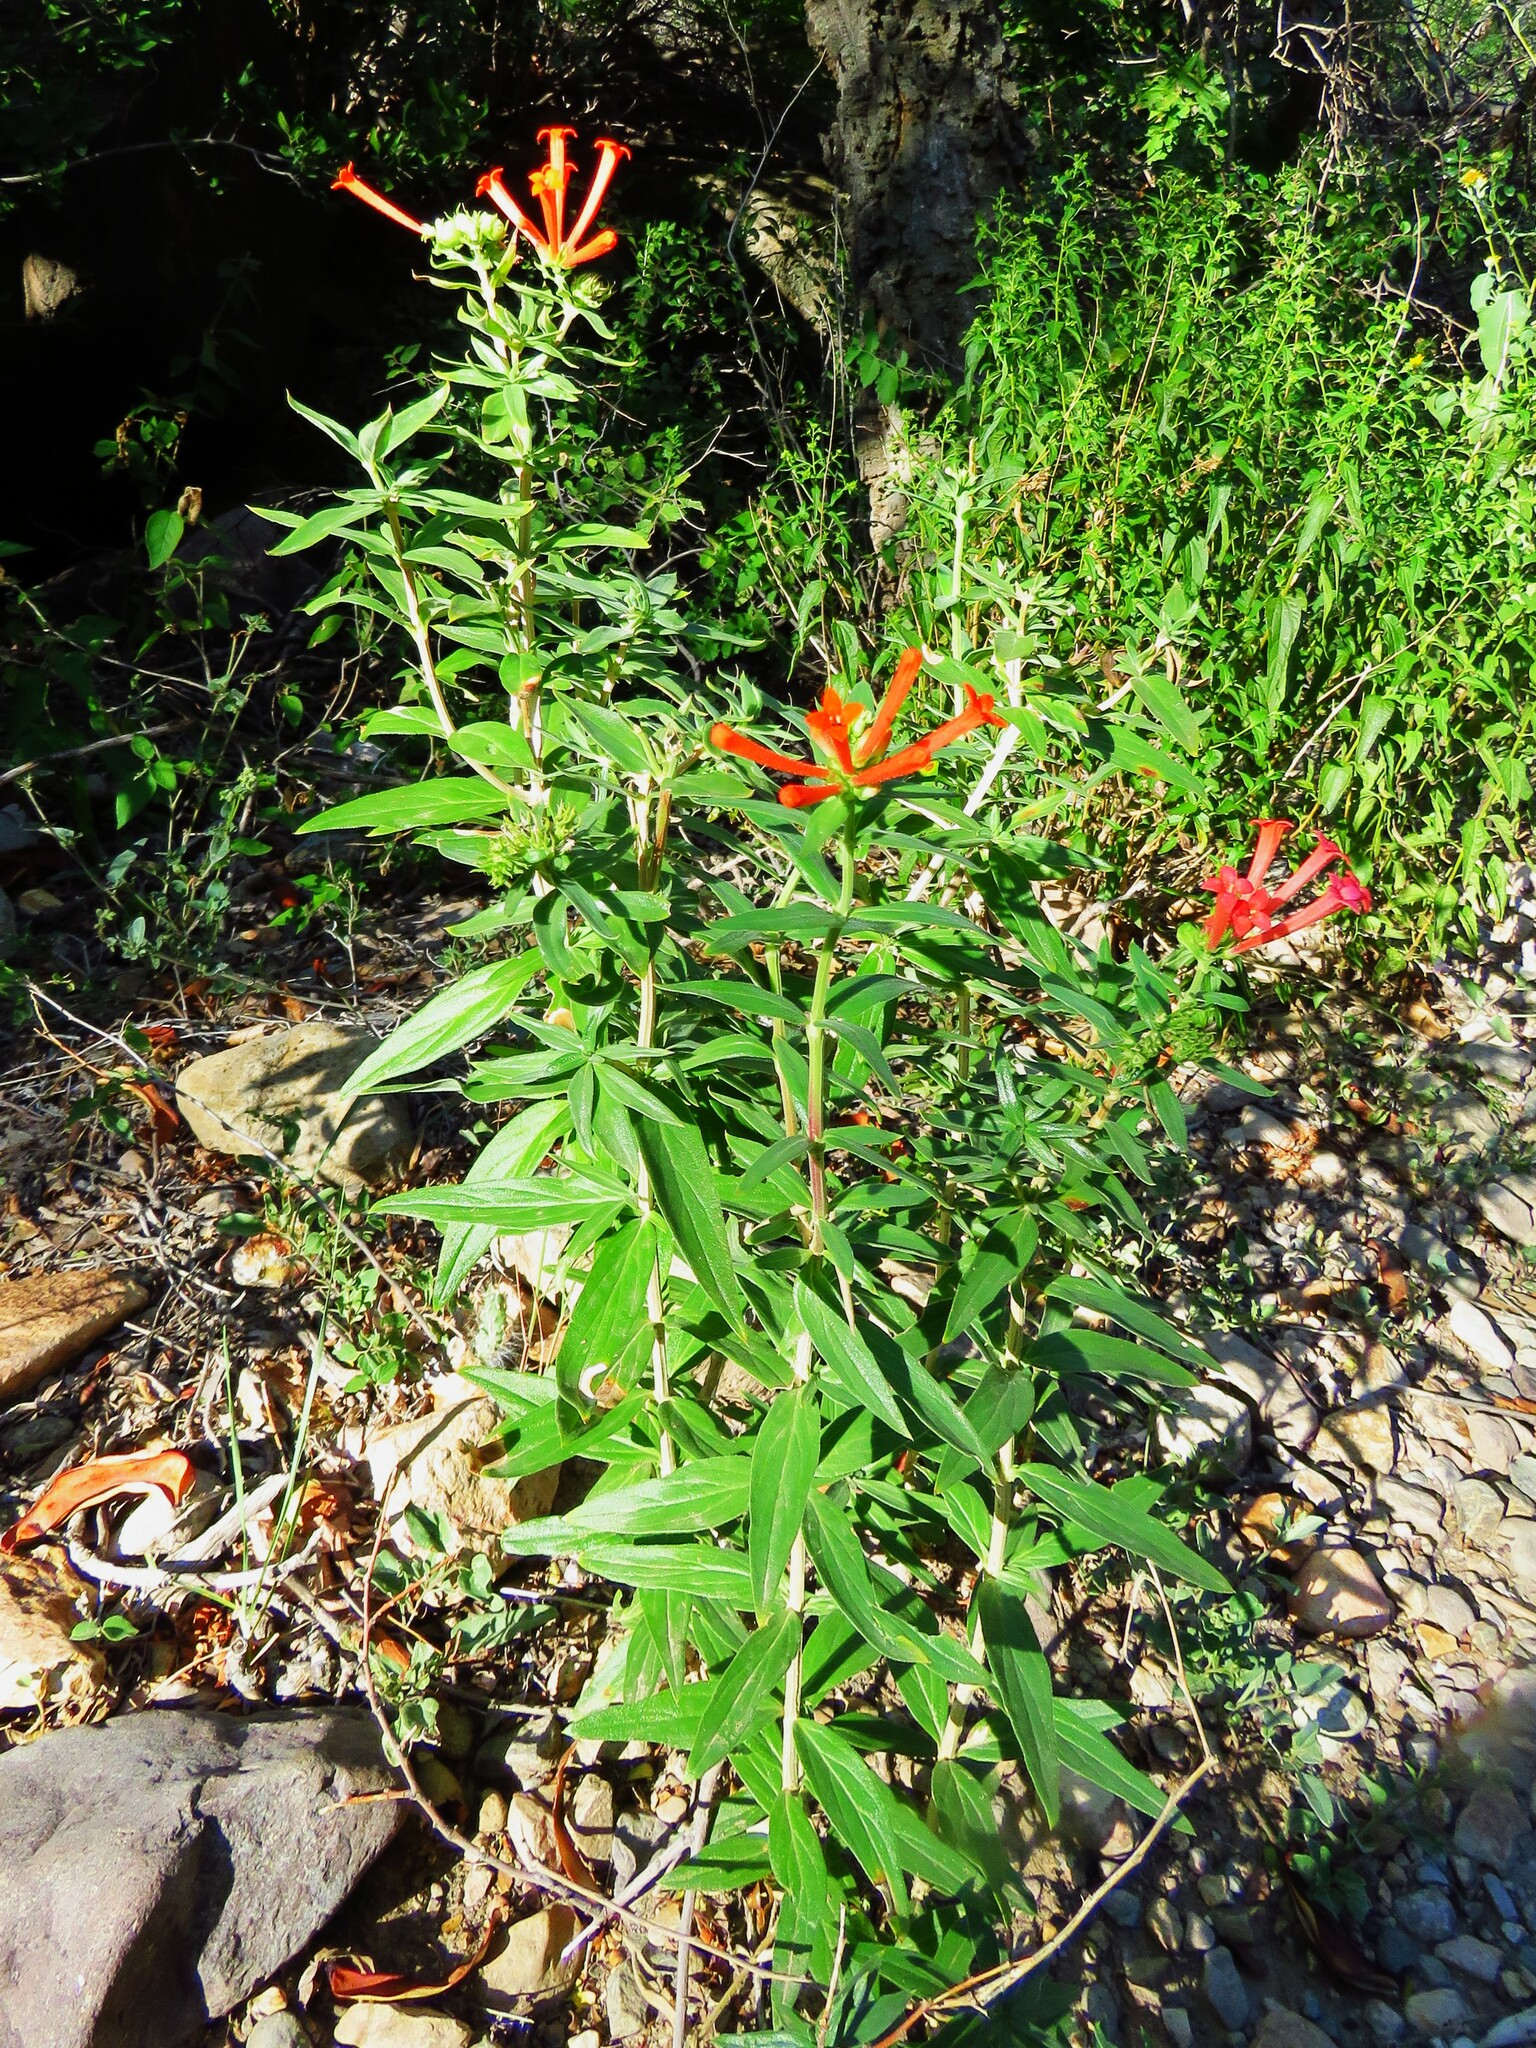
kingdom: Plantae
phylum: Tracheophyta
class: Magnoliopsida
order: Gentianales
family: Rubiaceae
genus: Bouvardia
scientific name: Bouvardia ternifolia
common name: Scarlet bouvardia
